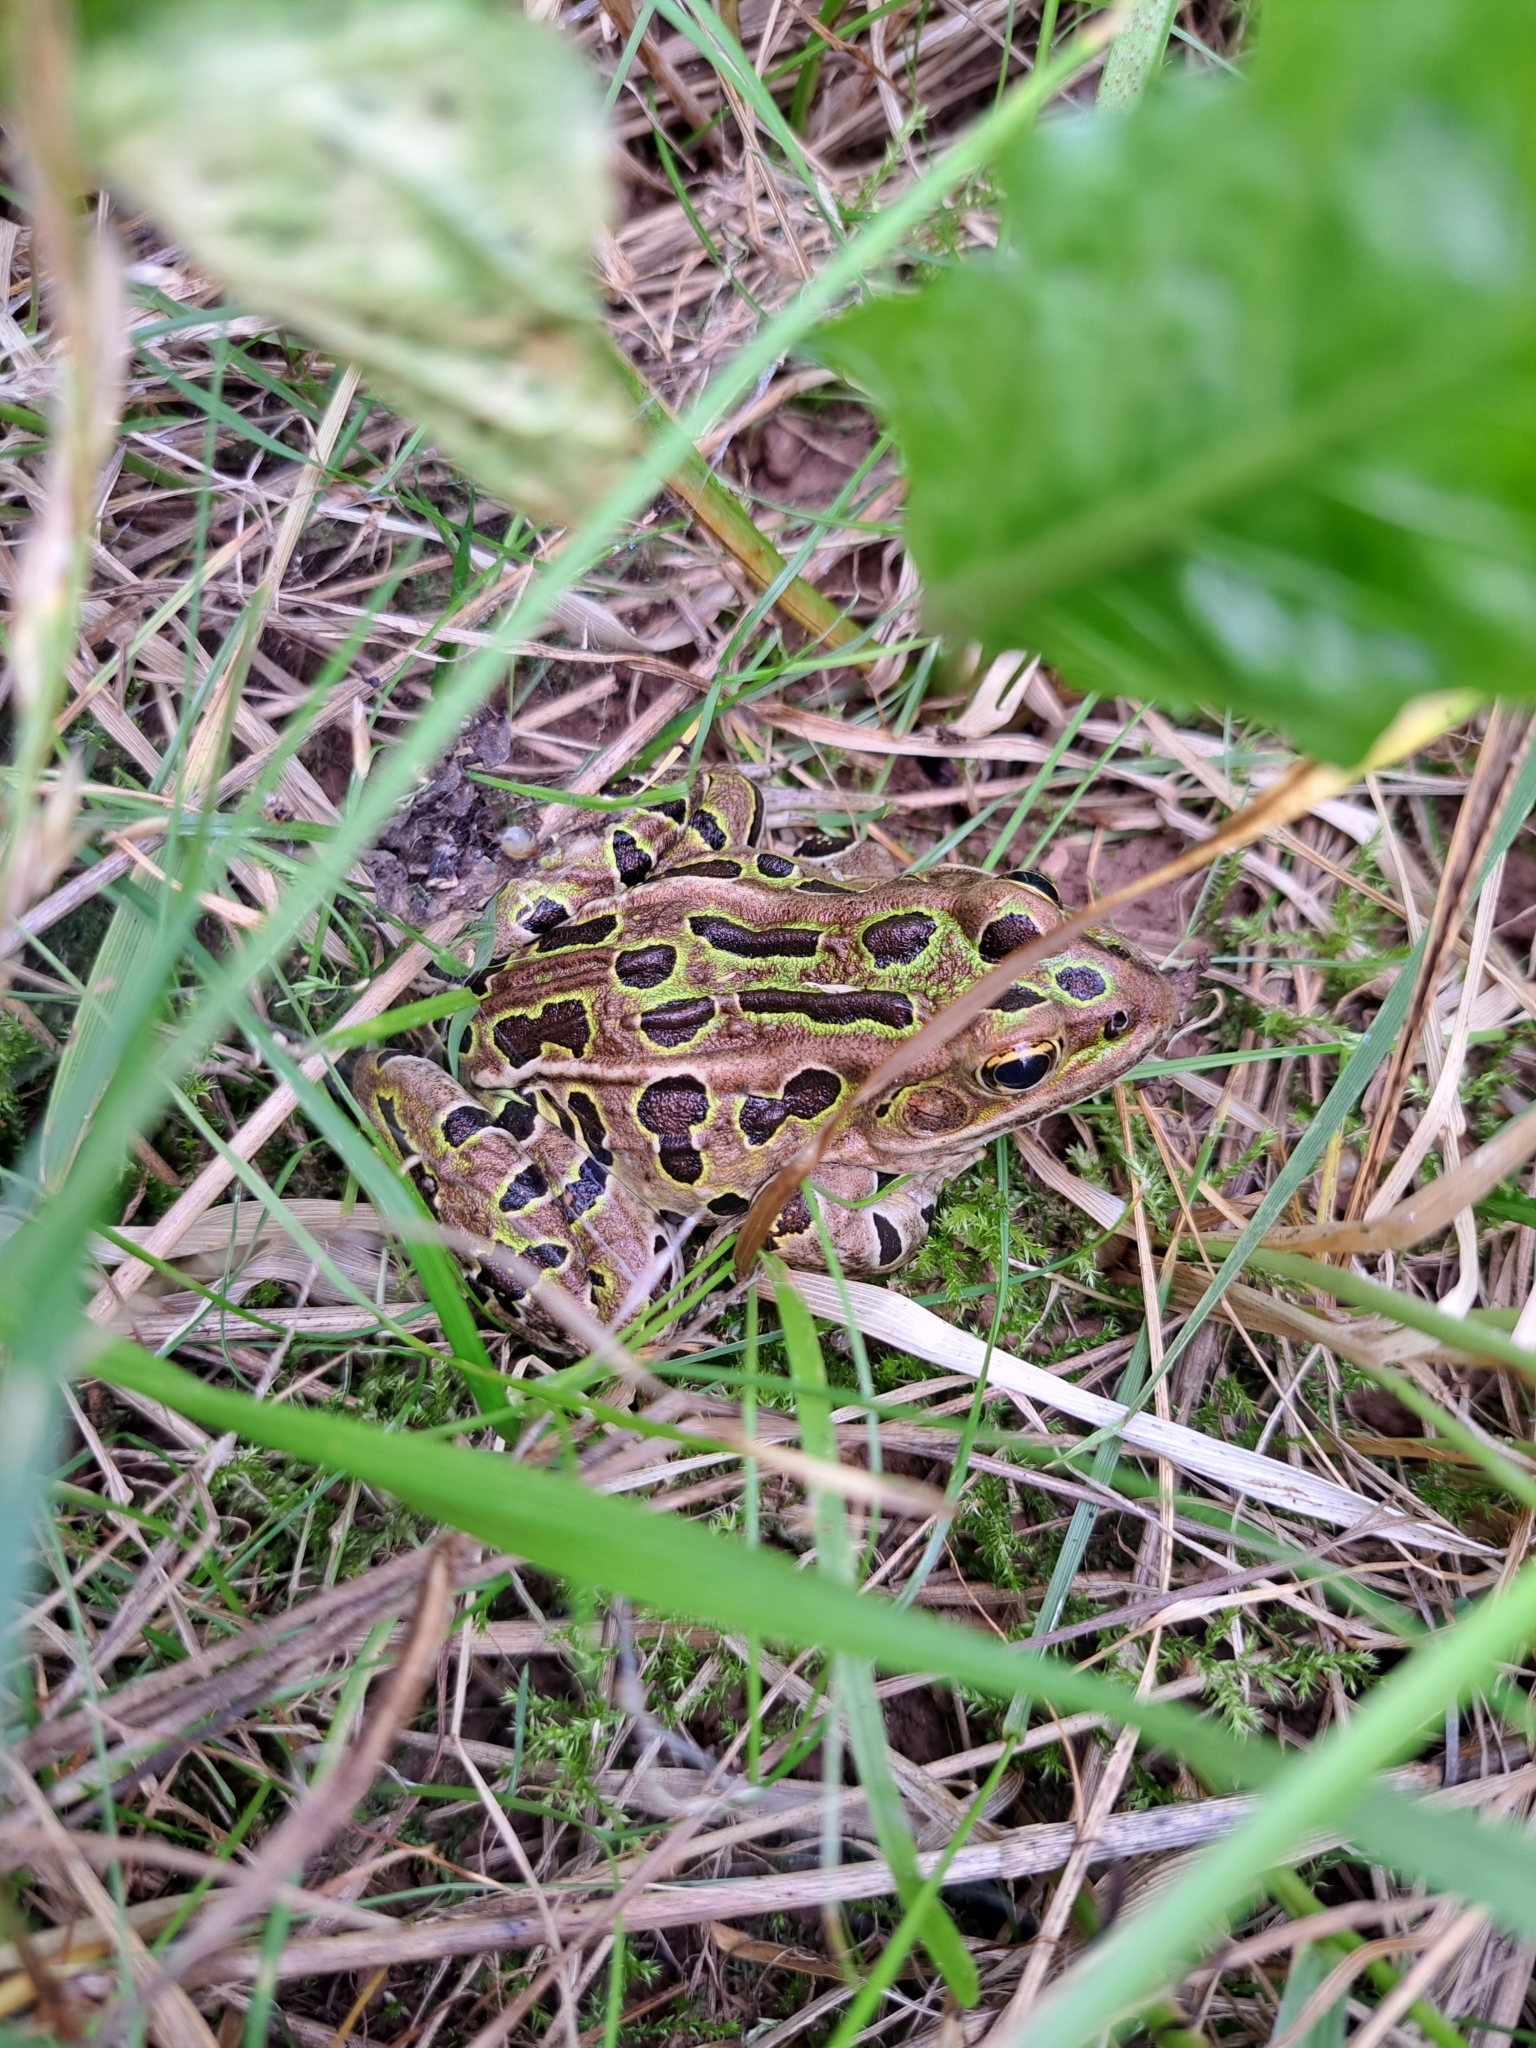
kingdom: Animalia
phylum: Chordata
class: Amphibia
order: Anura
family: Ranidae
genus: Lithobates
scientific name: Lithobates pipiens
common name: Northern leopard frog
